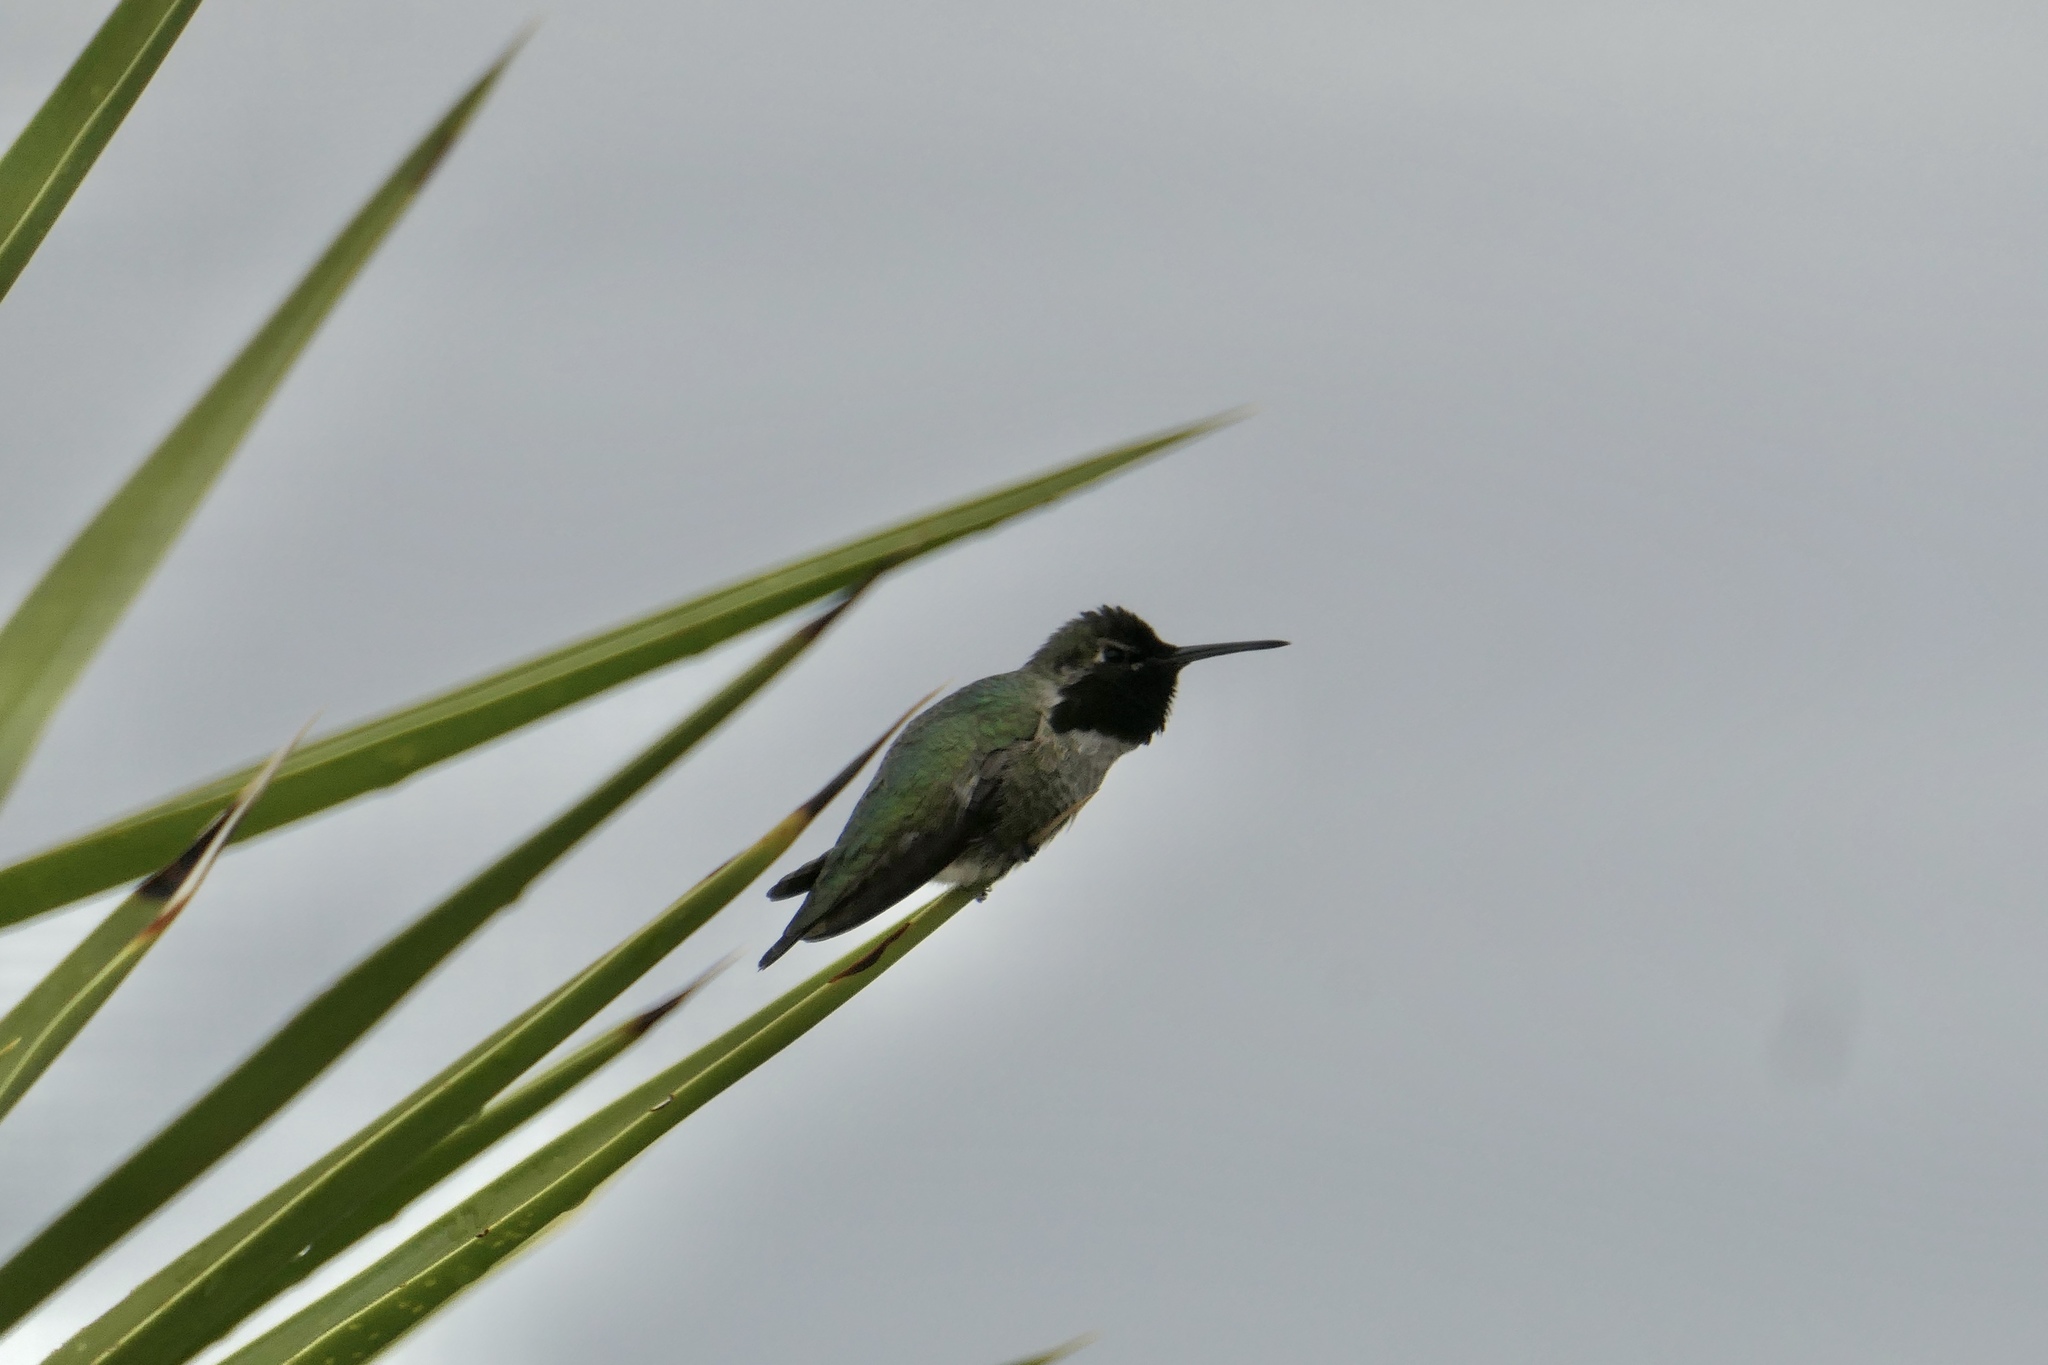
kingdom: Animalia
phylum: Chordata
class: Aves
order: Apodiformes
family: Trochilidae
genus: Calypte
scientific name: Calypte anna
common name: Anna's hummingbird
